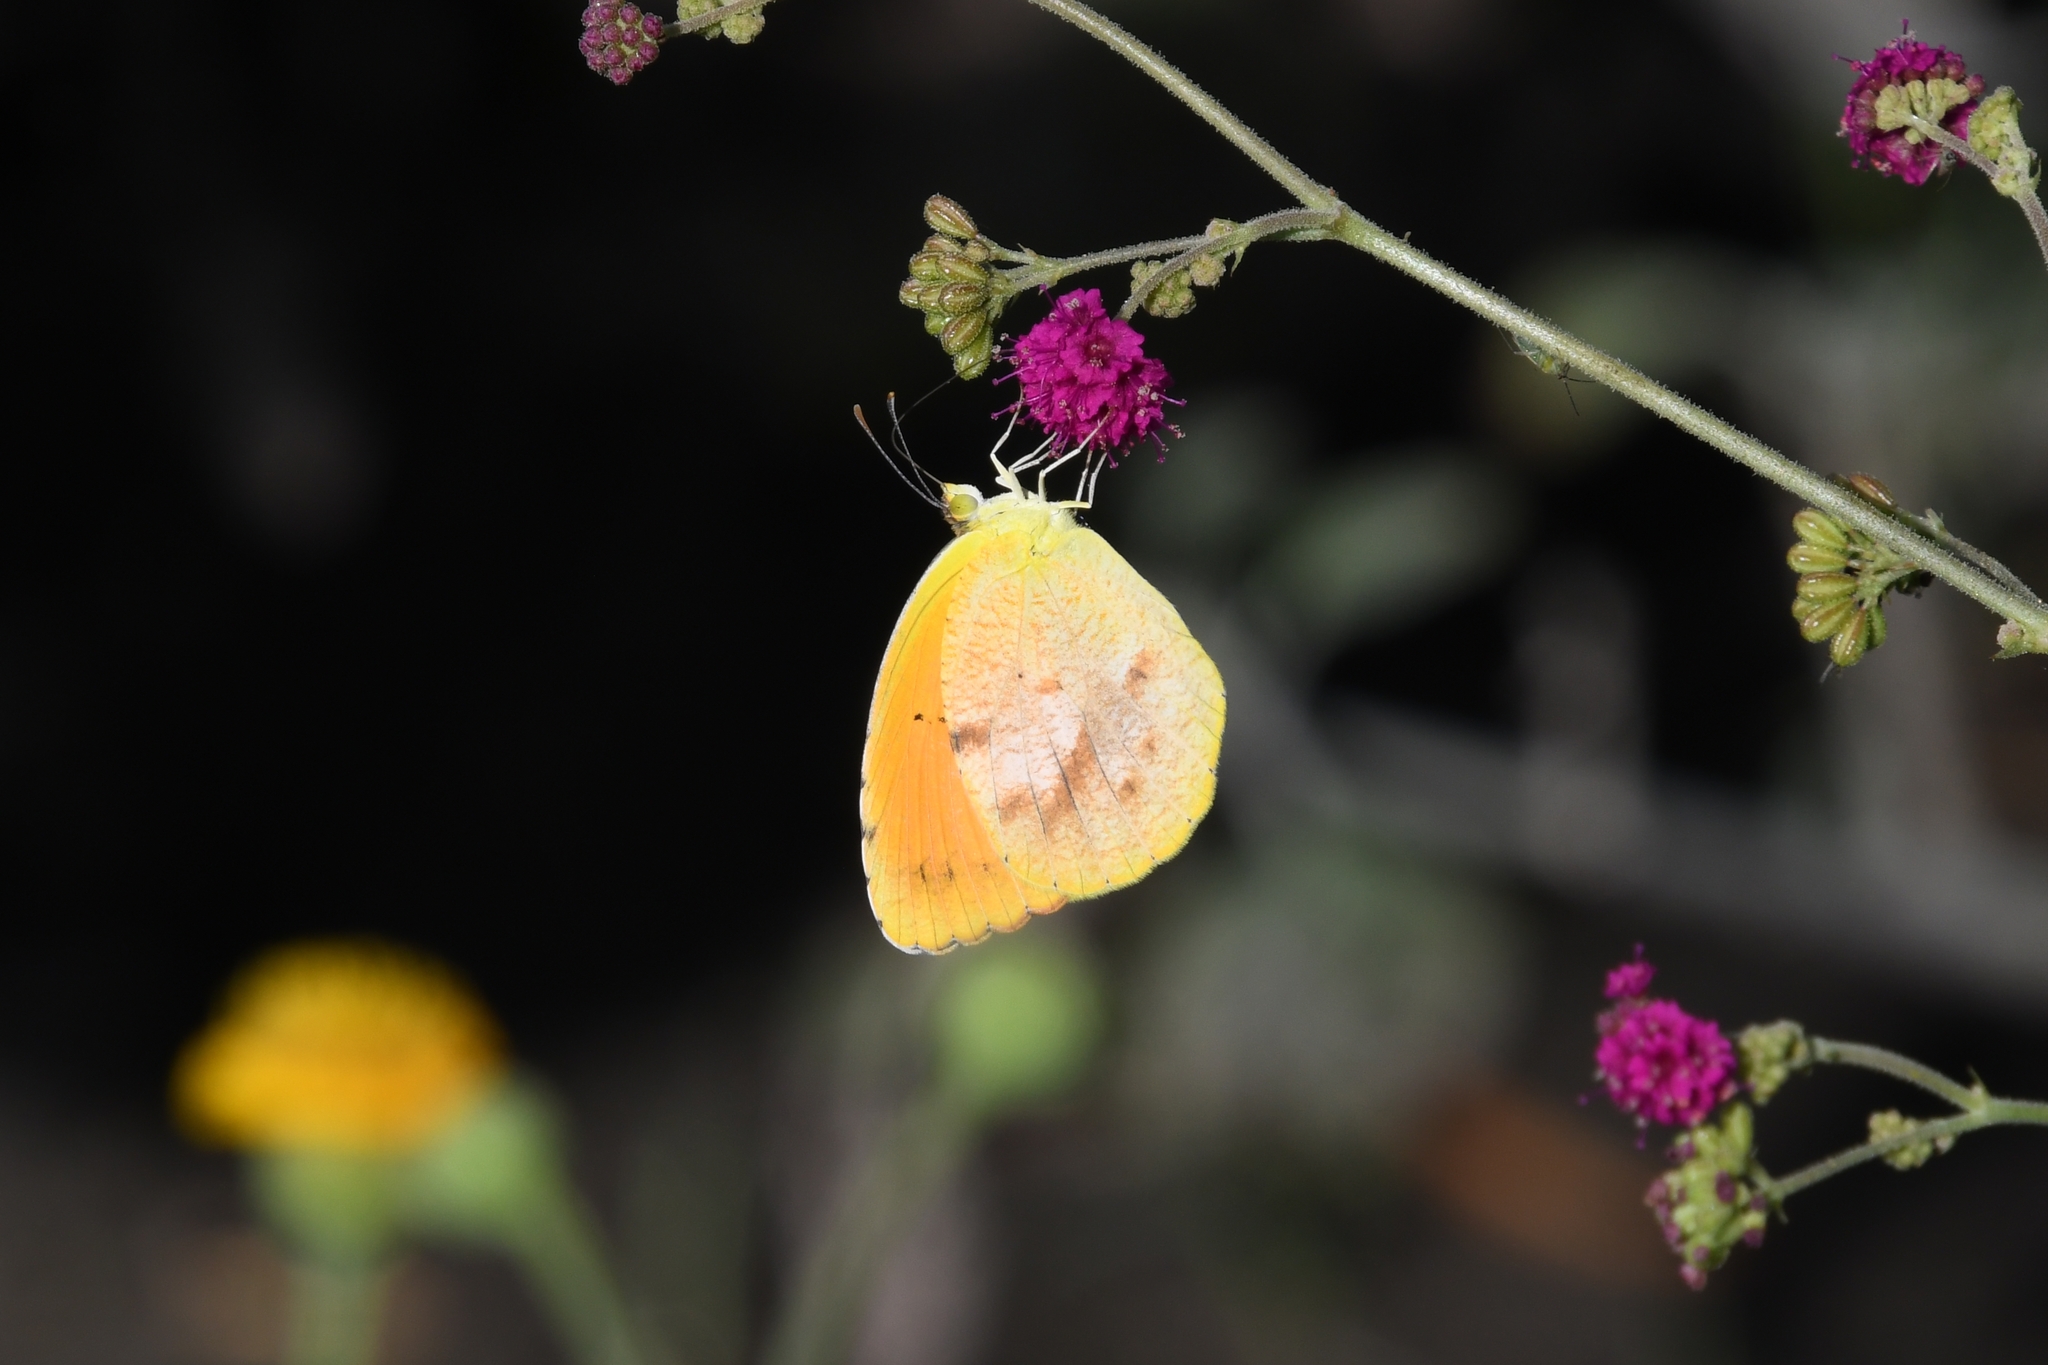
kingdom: Animalia
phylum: Arthropoda
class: Insecta
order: Lepidoptera
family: Pieridae
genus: Abaeis
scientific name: Abaeis nicippe
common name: Sleepy orange
